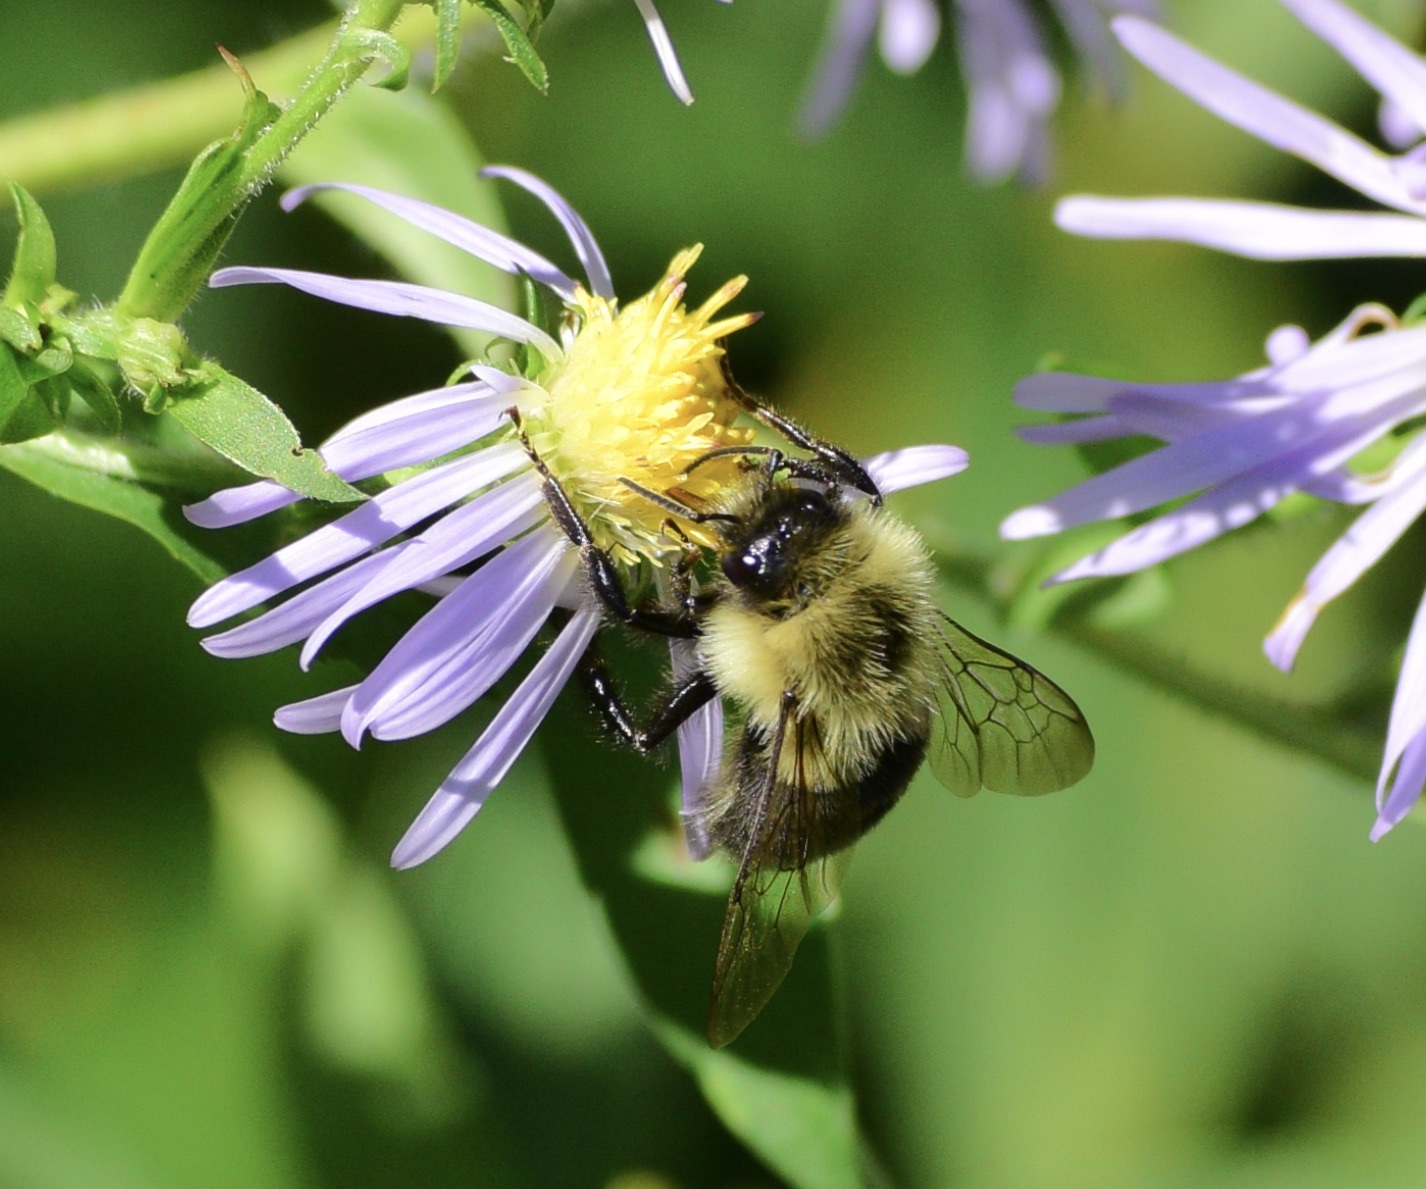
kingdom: Animalia
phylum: Arthropoda
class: Insecta
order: Hymenoptera
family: Apidae
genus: Bombus
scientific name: Bombus impatiens
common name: Common eastern bumble bee
